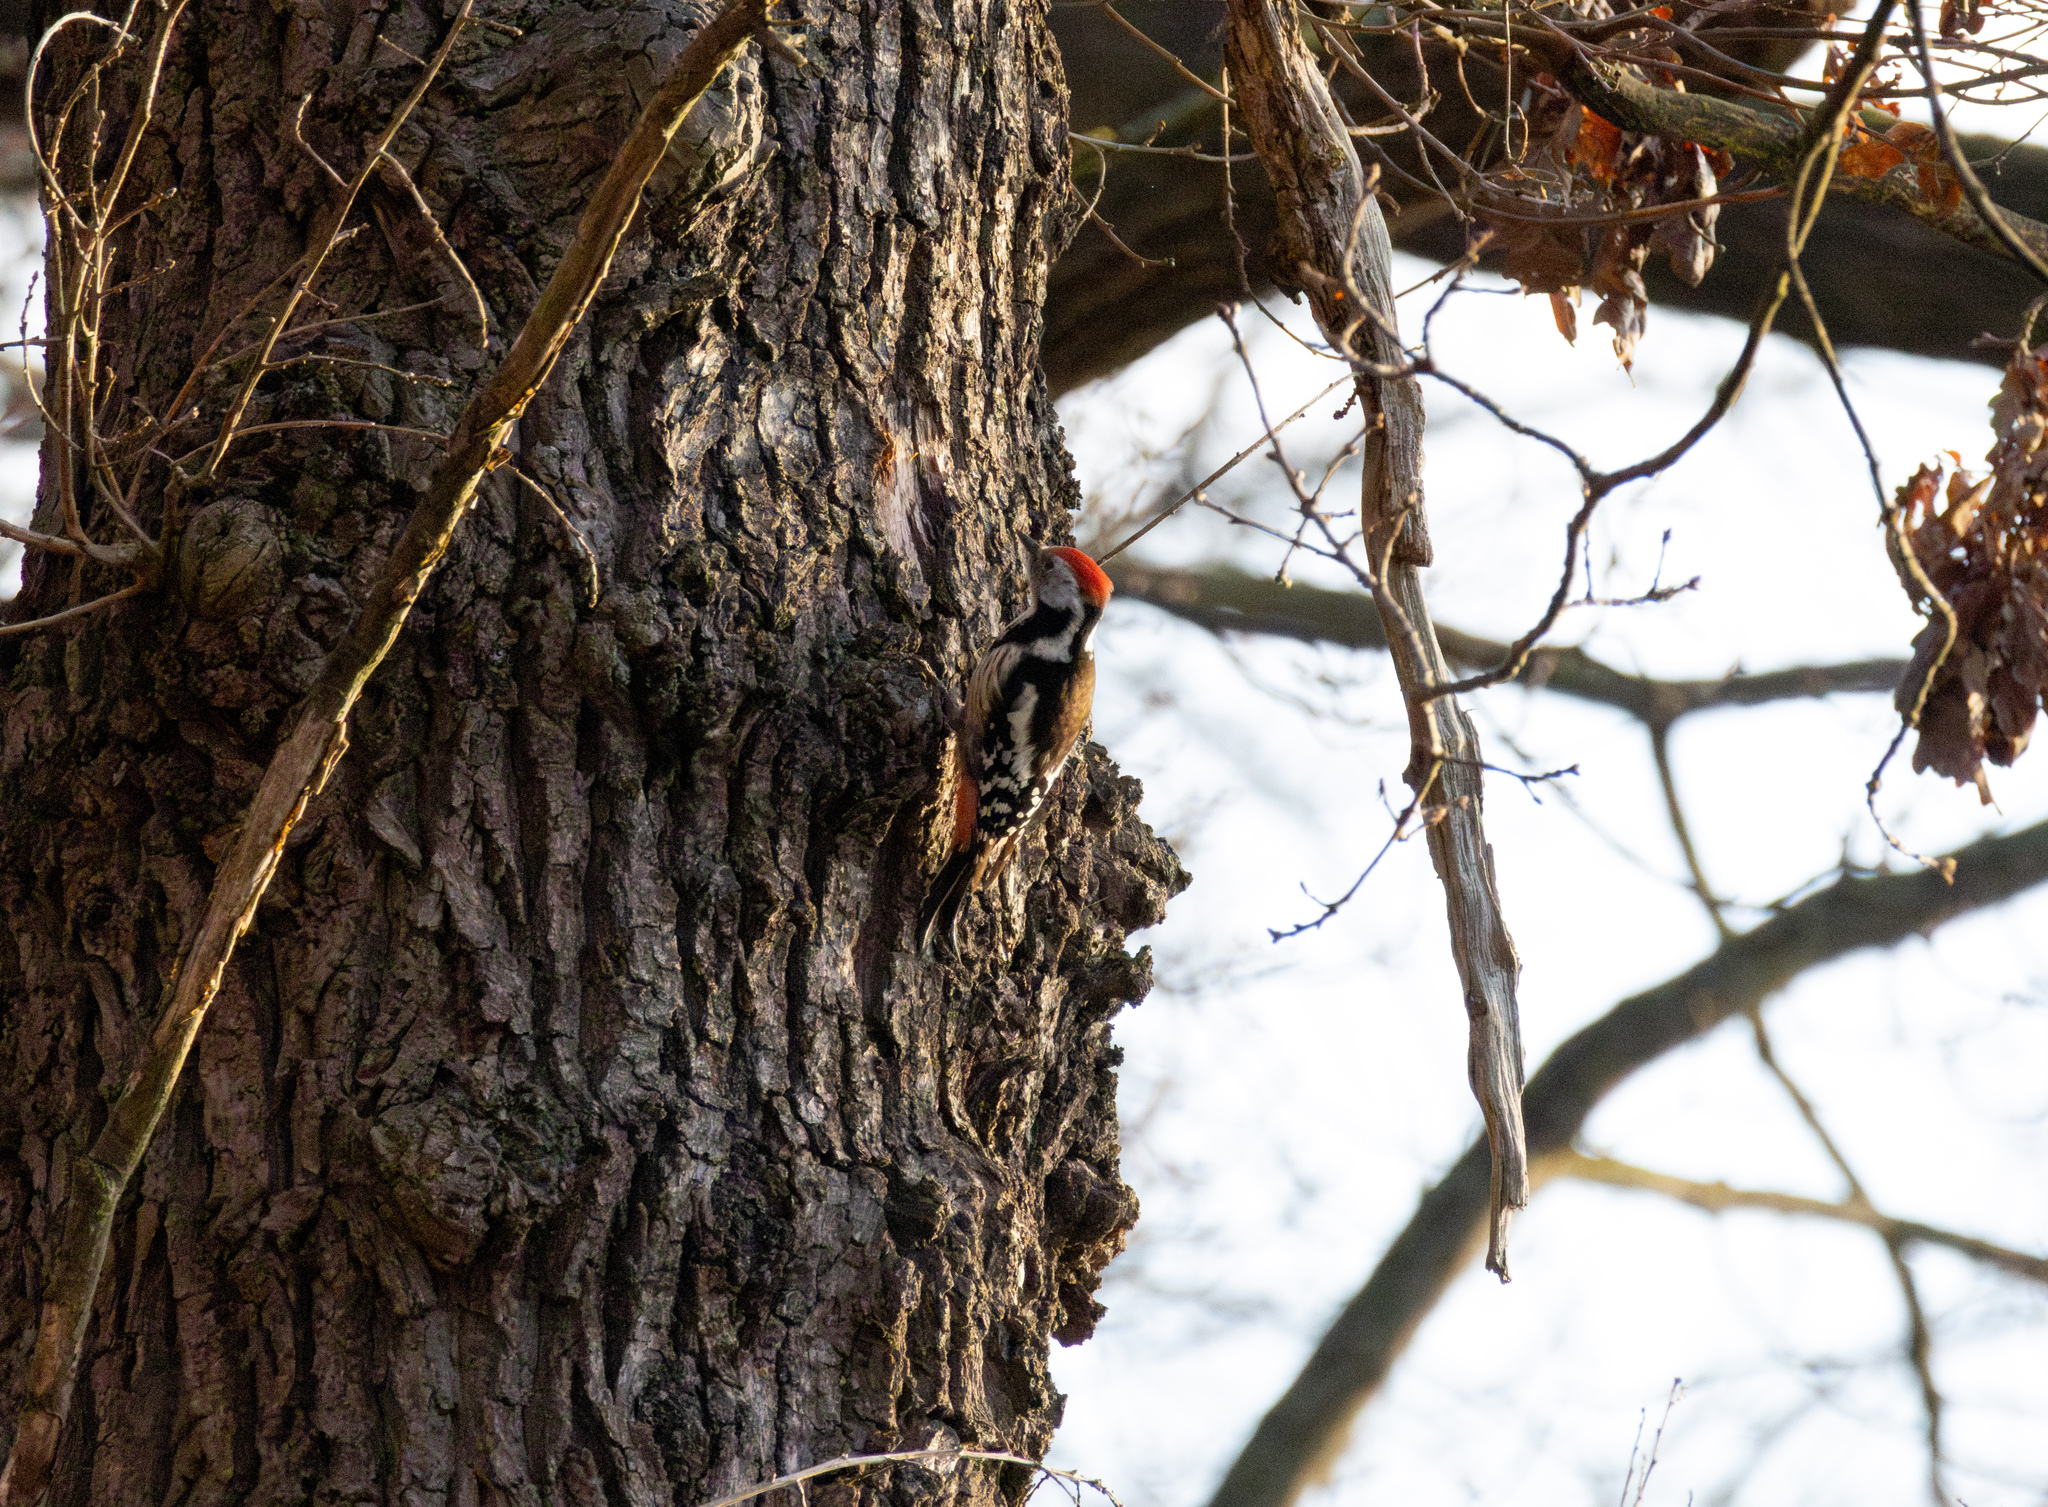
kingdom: Animalia
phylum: Chordata
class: Aves
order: Piciformes
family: Picidae
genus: Dendrocoptes
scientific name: Dendrocoptes medius
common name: Middle spotted woodpecker
